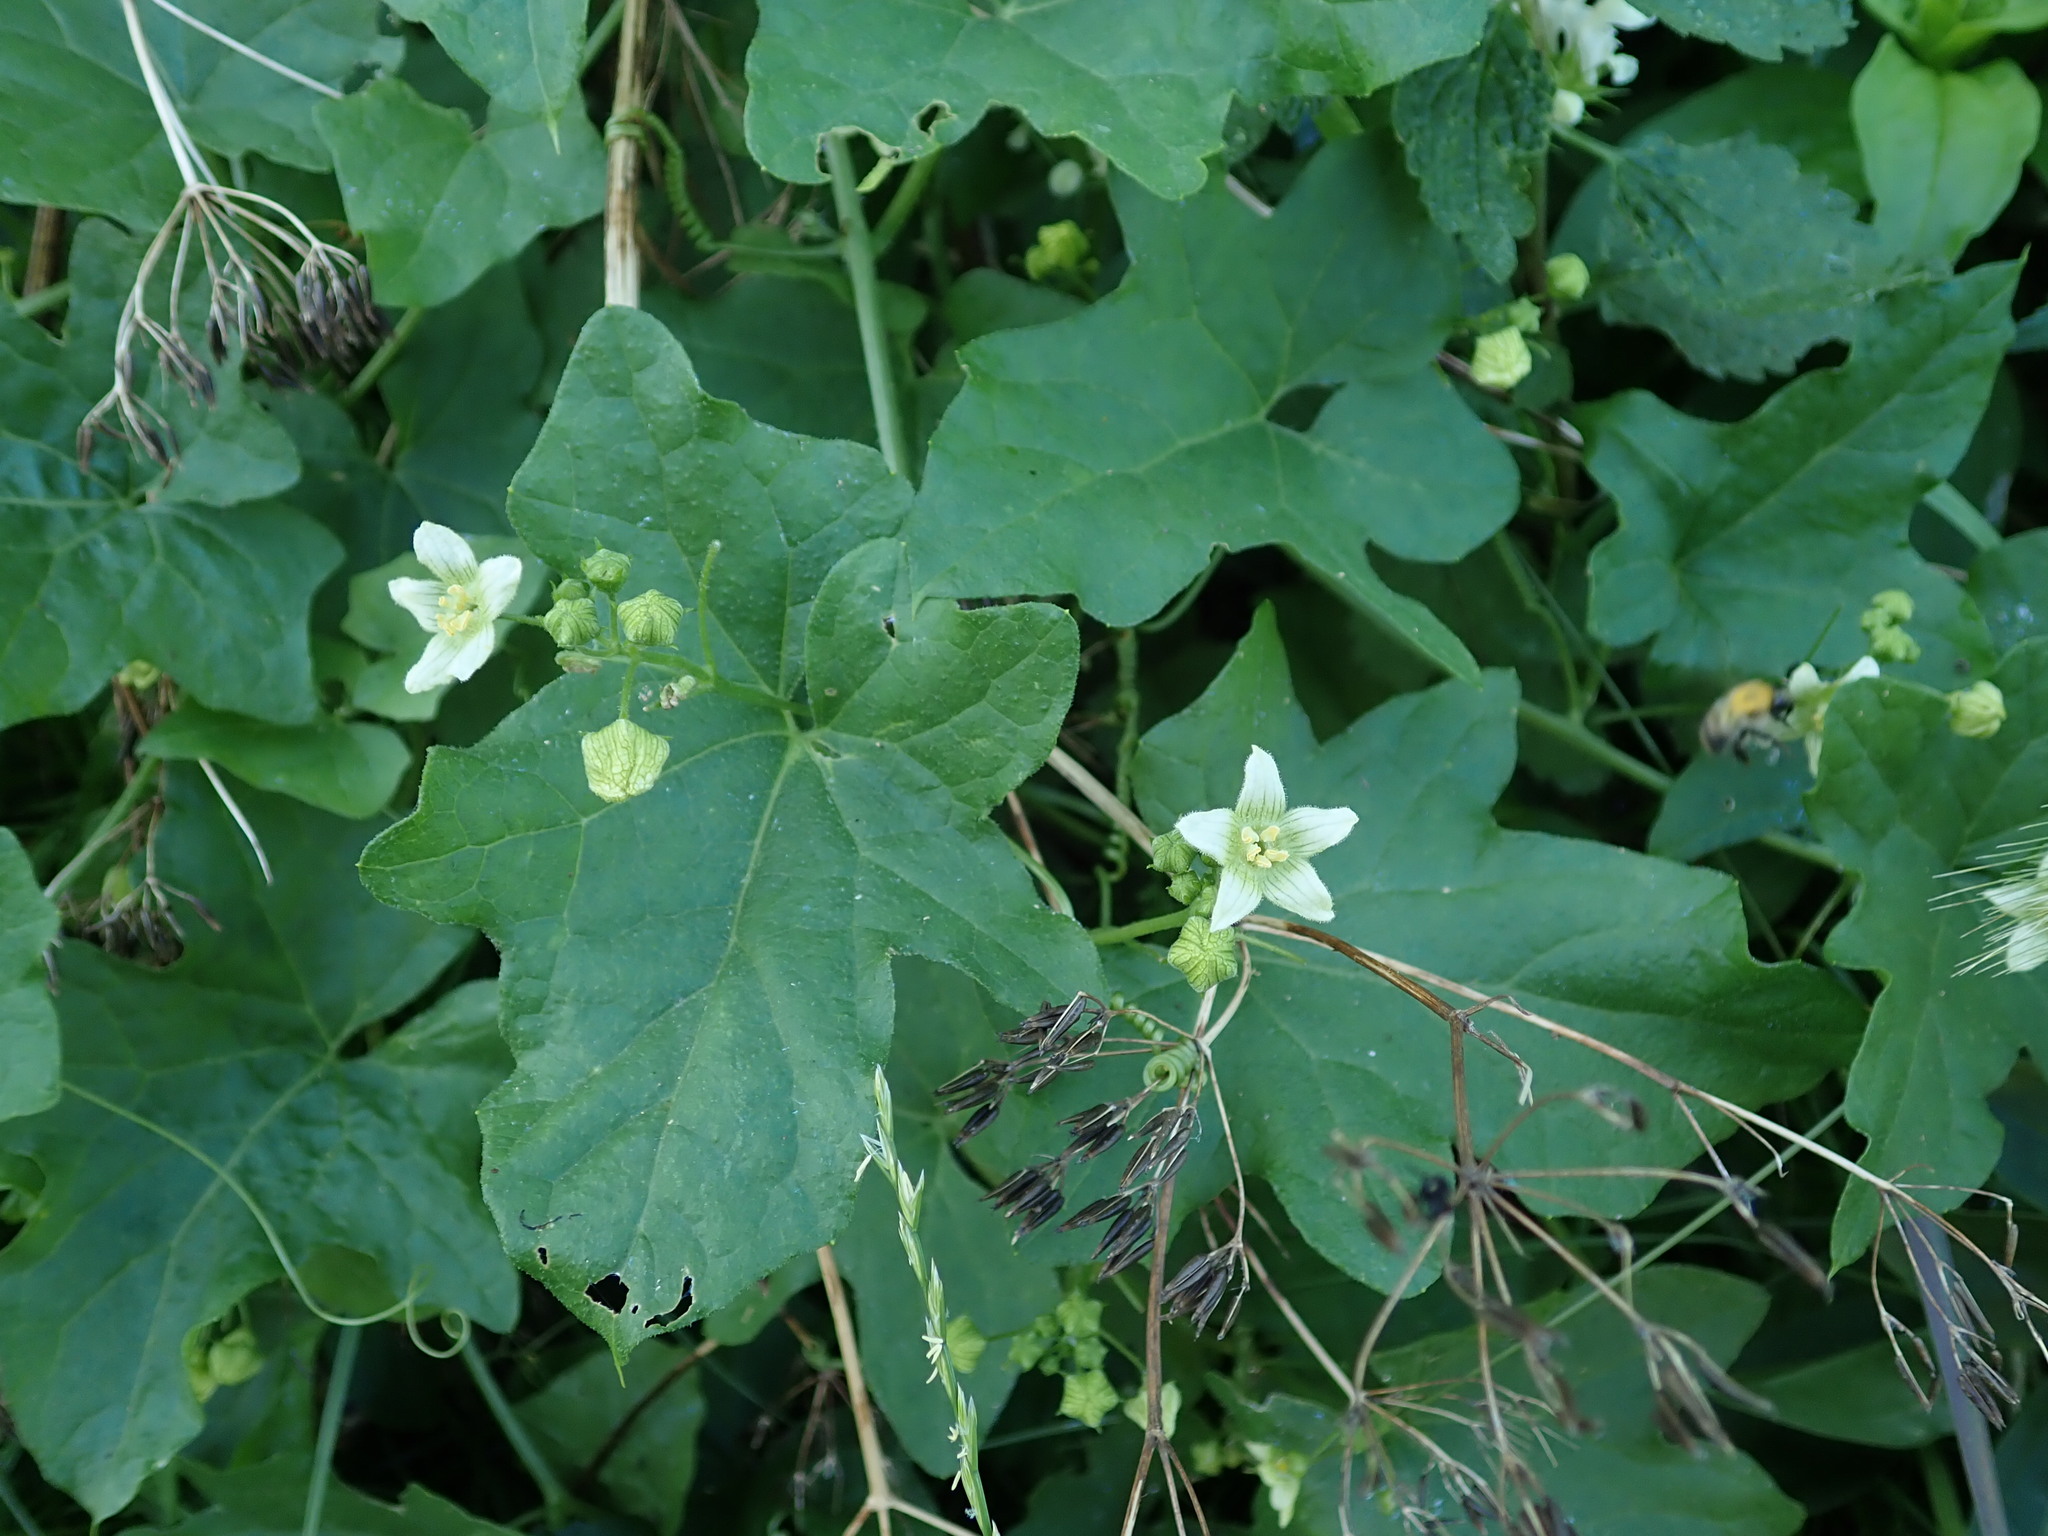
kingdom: Plantae
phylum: Tracheophyta
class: Magnoliopsida
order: Cucurbitales
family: Cucurbitaceae
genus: Bryonia
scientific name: Bryonia cretica
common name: Cretan bryony
